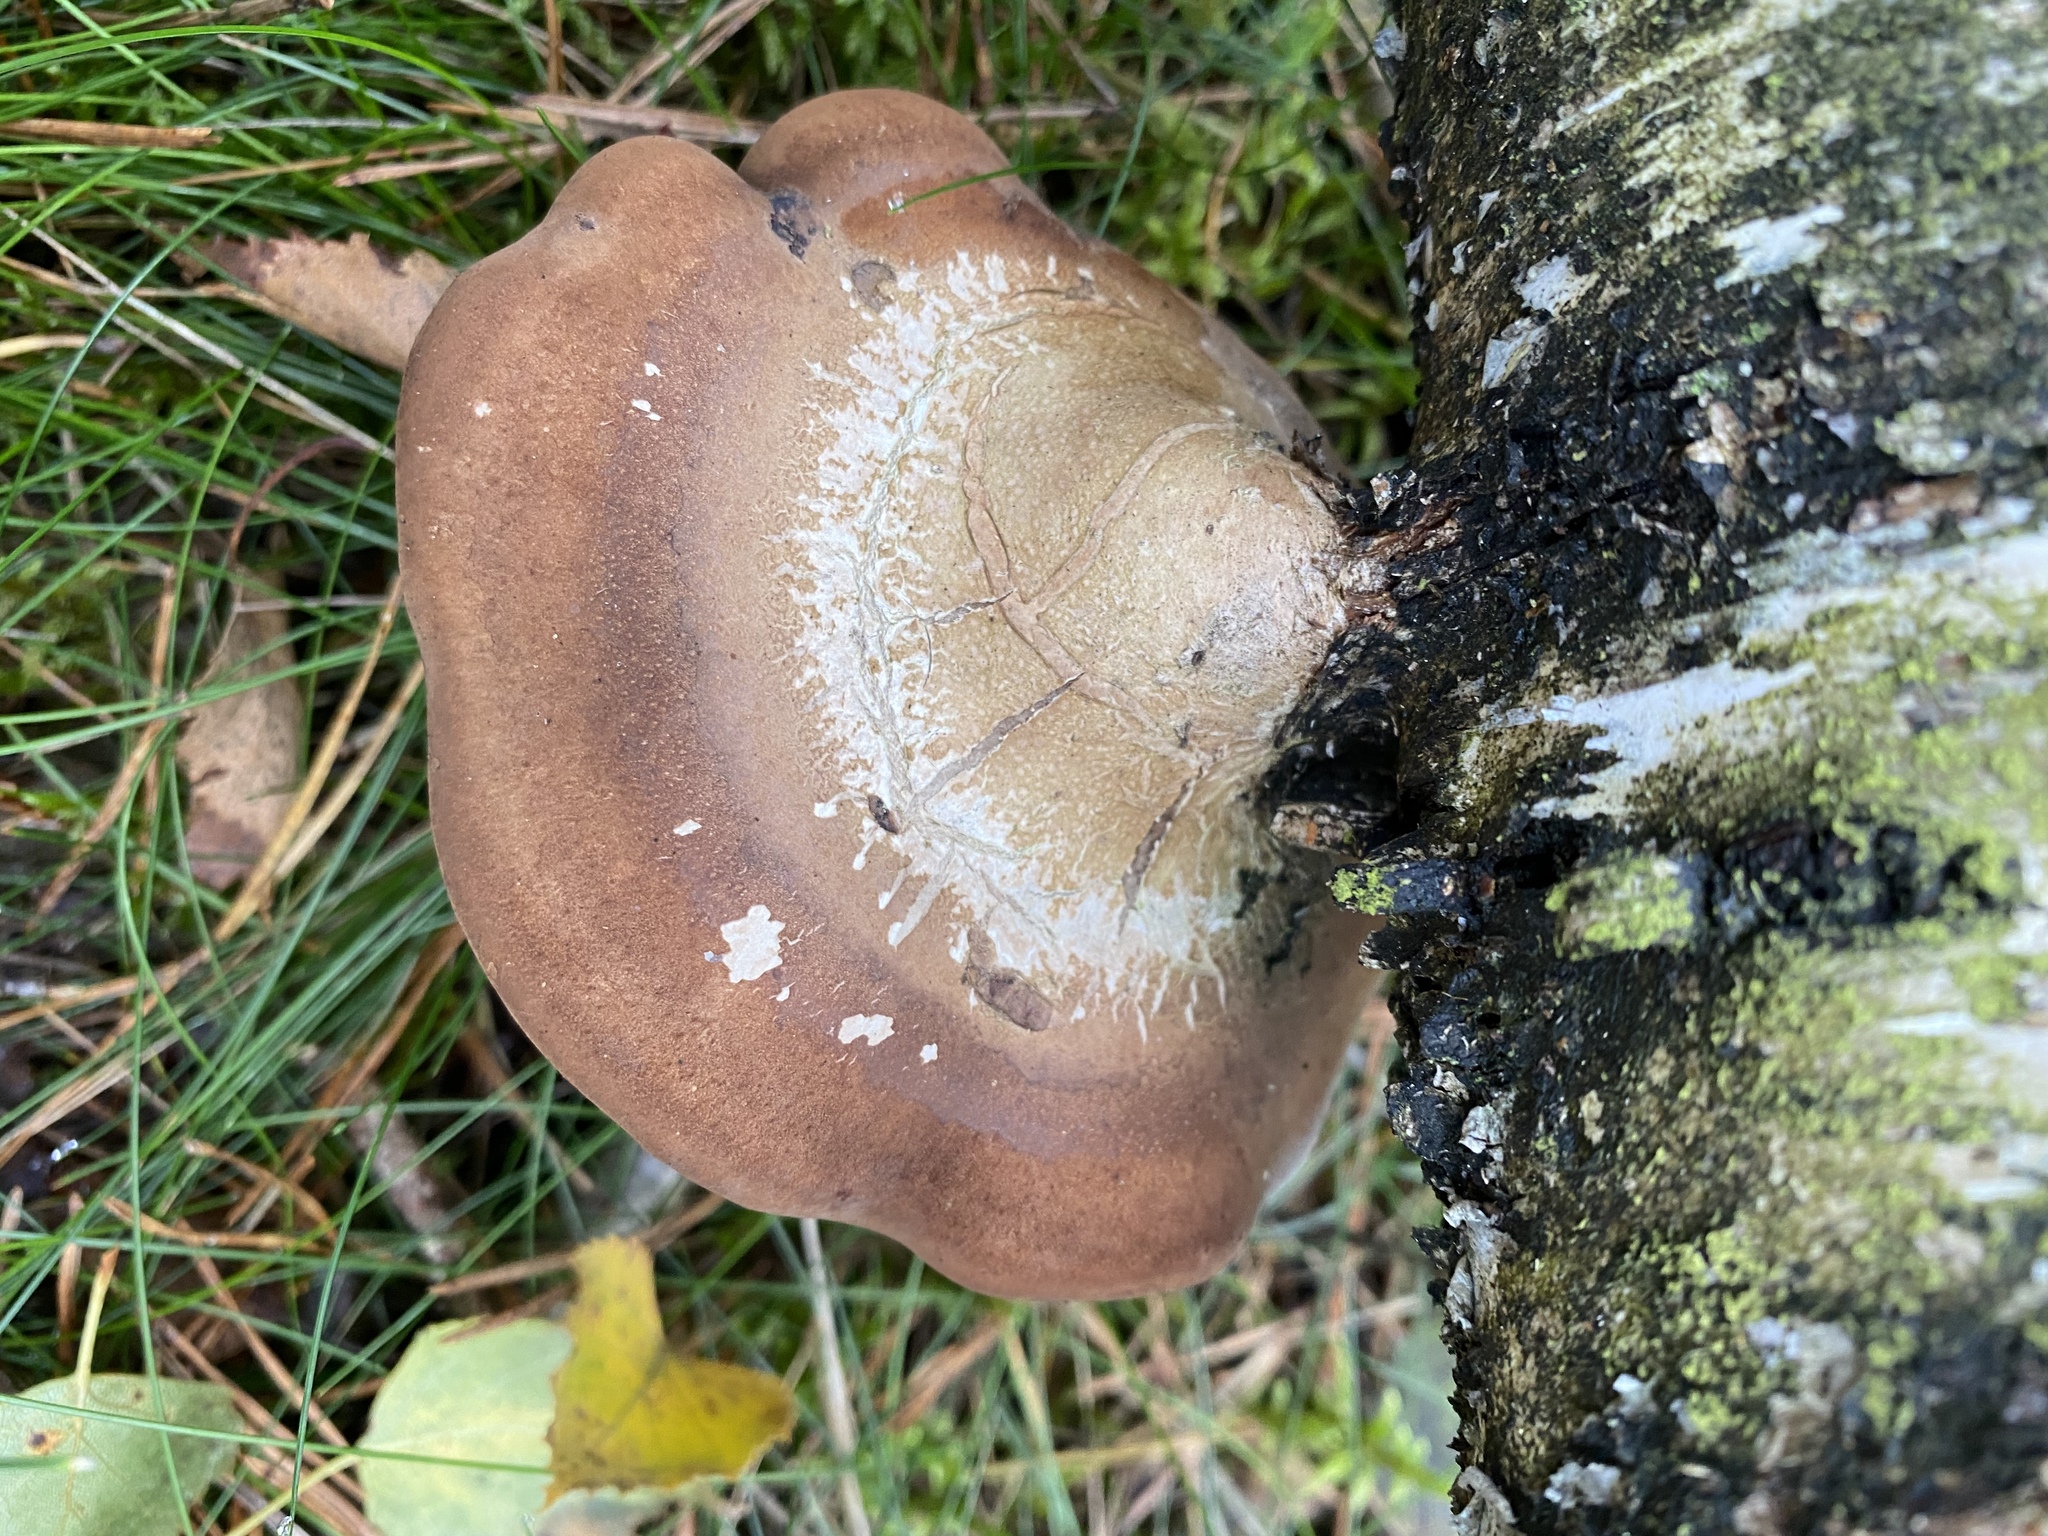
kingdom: Fungi
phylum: Basidiomycota
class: Agaricomycetes
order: Polyporales
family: Fomitopsidaceae
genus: Fomitopsis
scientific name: Fomitopsis betulina
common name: Birch polypore
